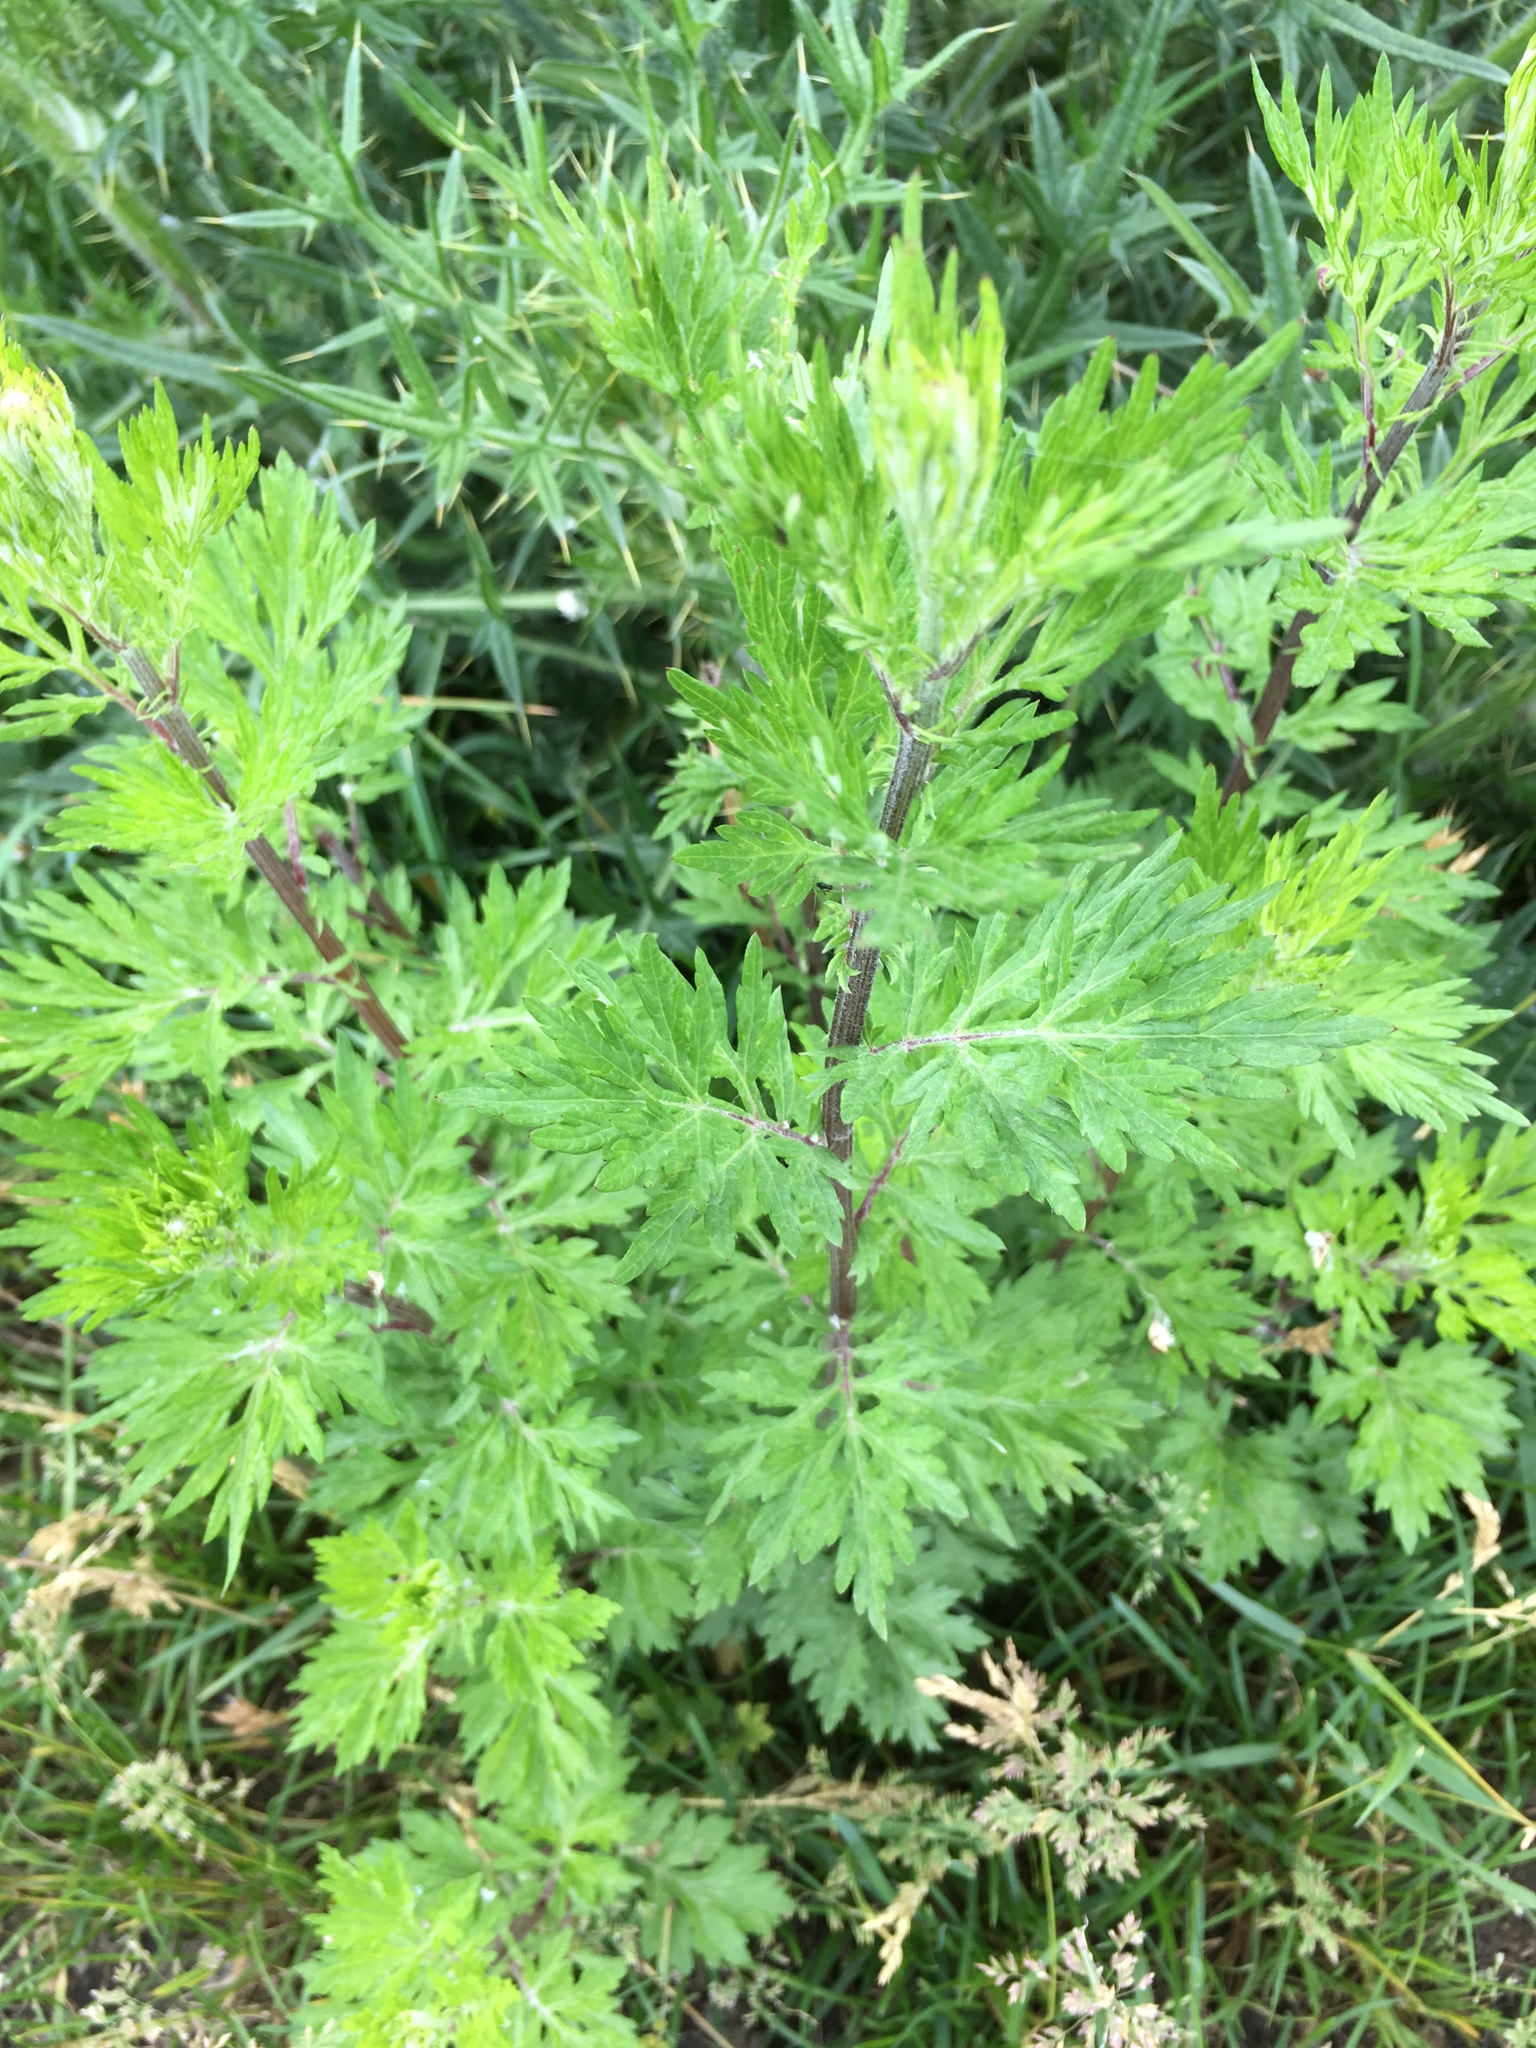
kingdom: Plantae
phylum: Tracheophyta
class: Magnoliopsida
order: Asterales
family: Asteraceae
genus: Artemisia
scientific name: Artemisia vulgaris
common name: Mugwort
